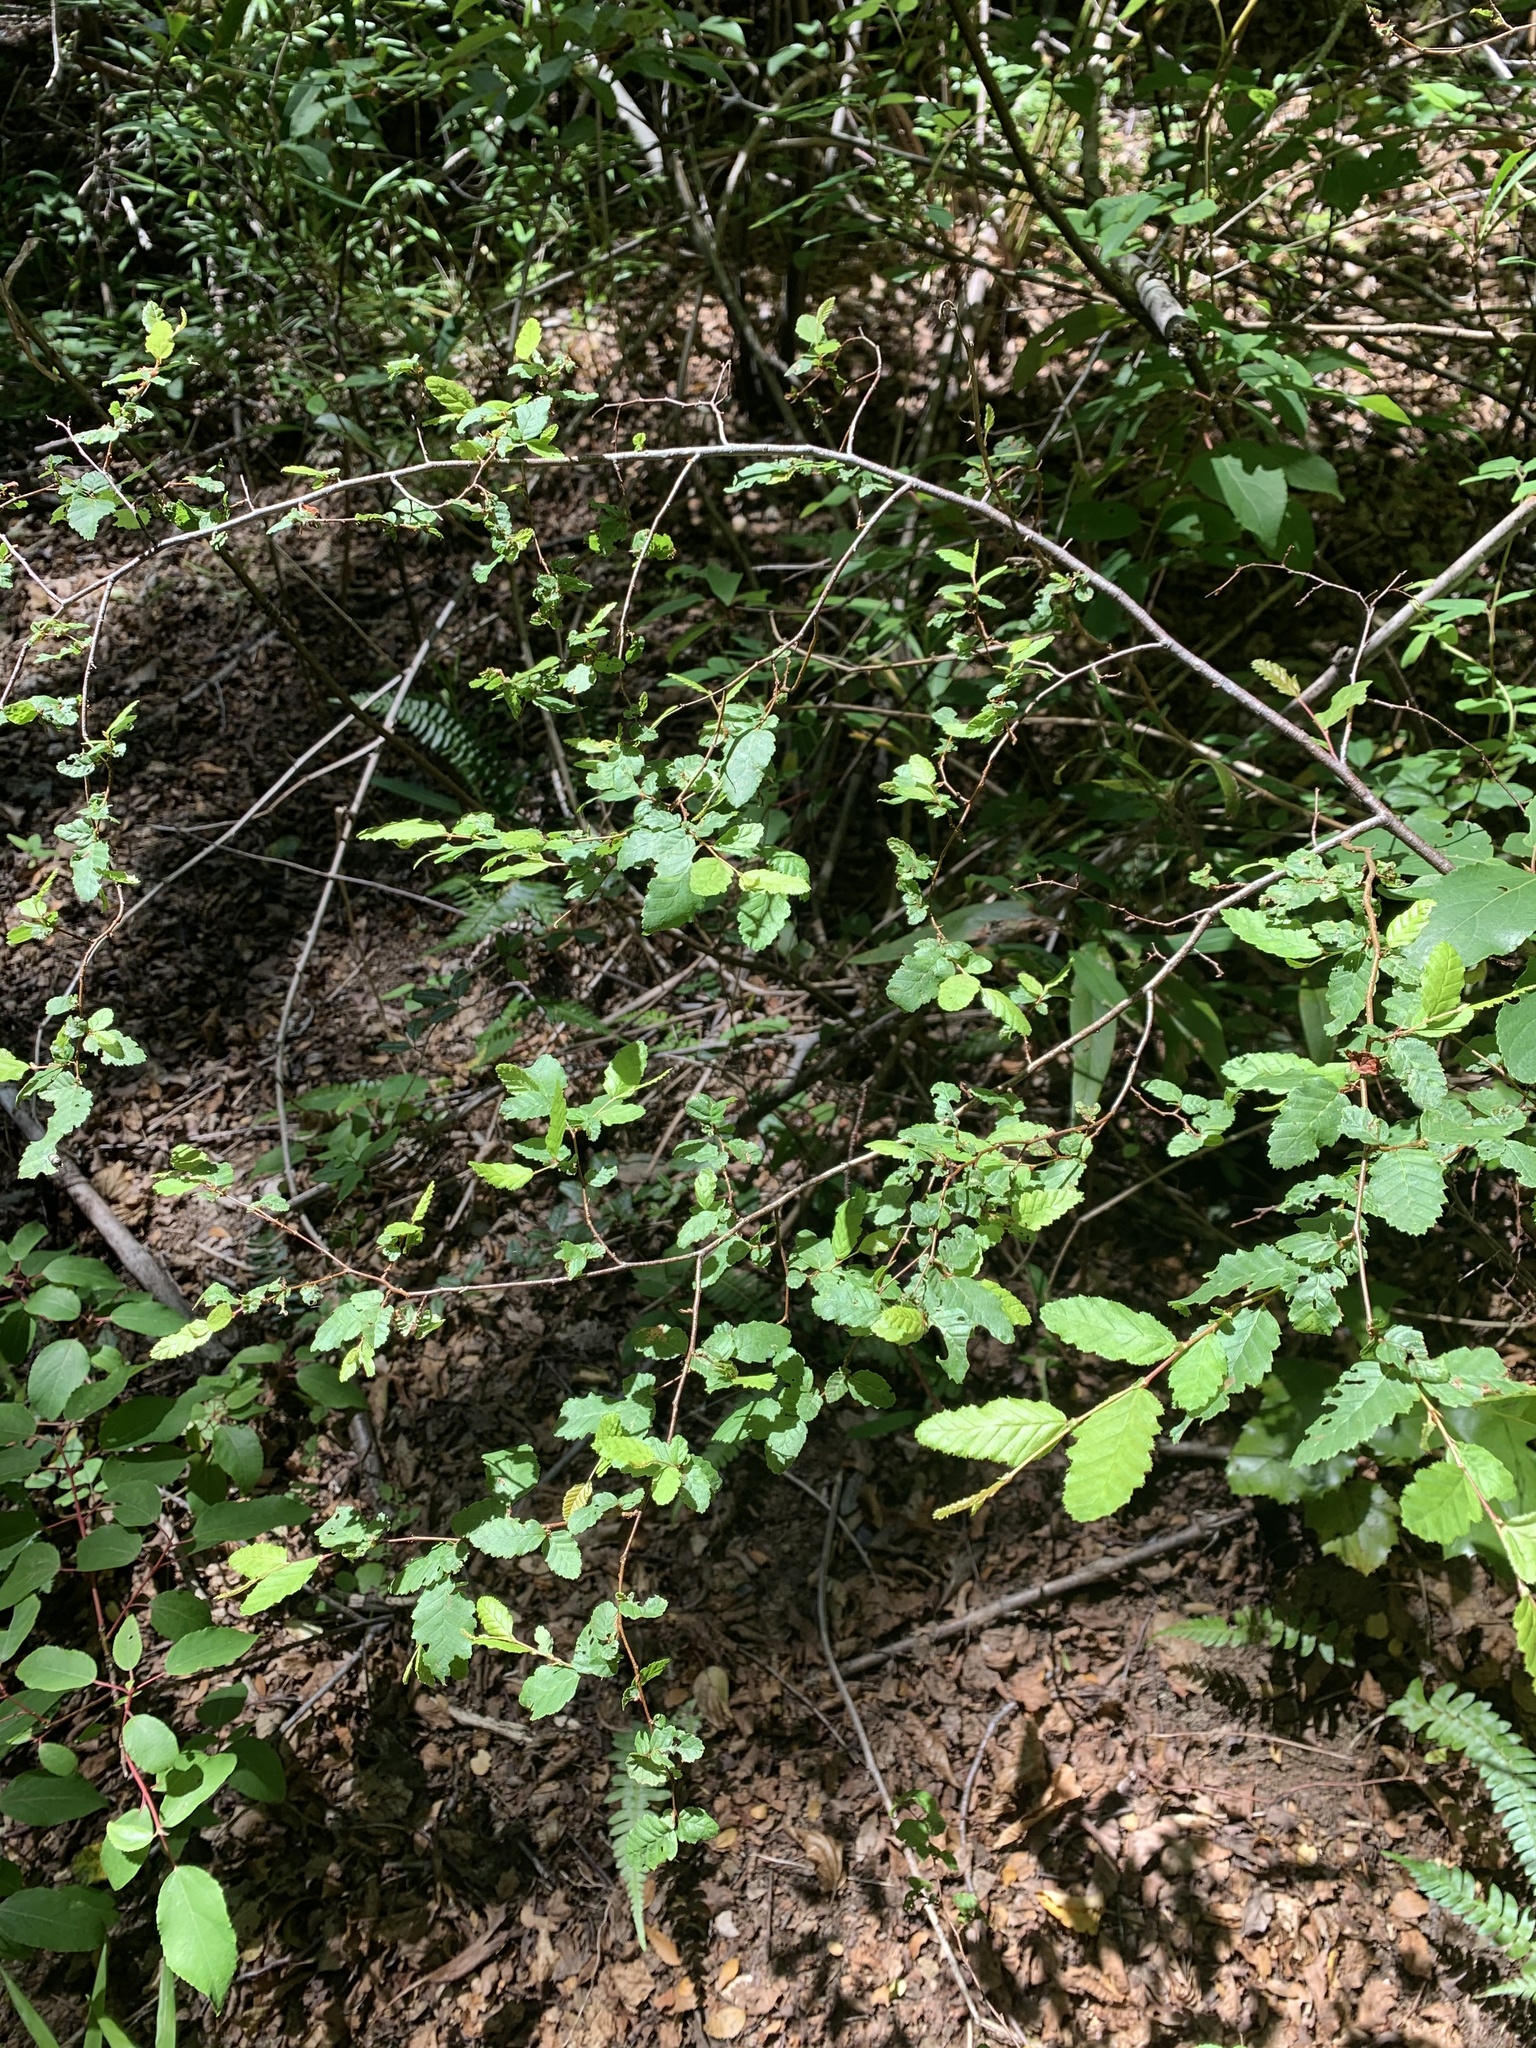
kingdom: Plantae
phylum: Tracheophyta
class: Magnoliopsida
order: Fagales
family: Nothofagaceae
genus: Nothofagus
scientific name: Nothofagus obliqua
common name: Roble beech
